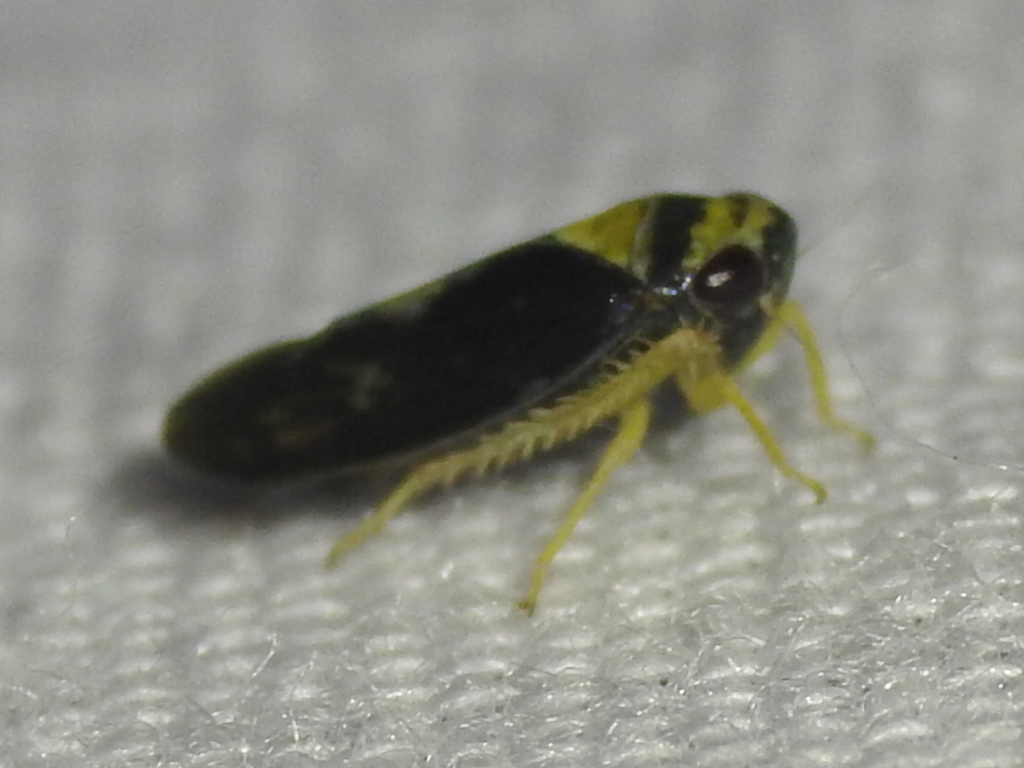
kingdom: Animalia
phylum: Arthropoda
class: Insecta
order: Hemiptera
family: Cicadellidae
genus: Eutettix
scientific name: Eutettix pictus
